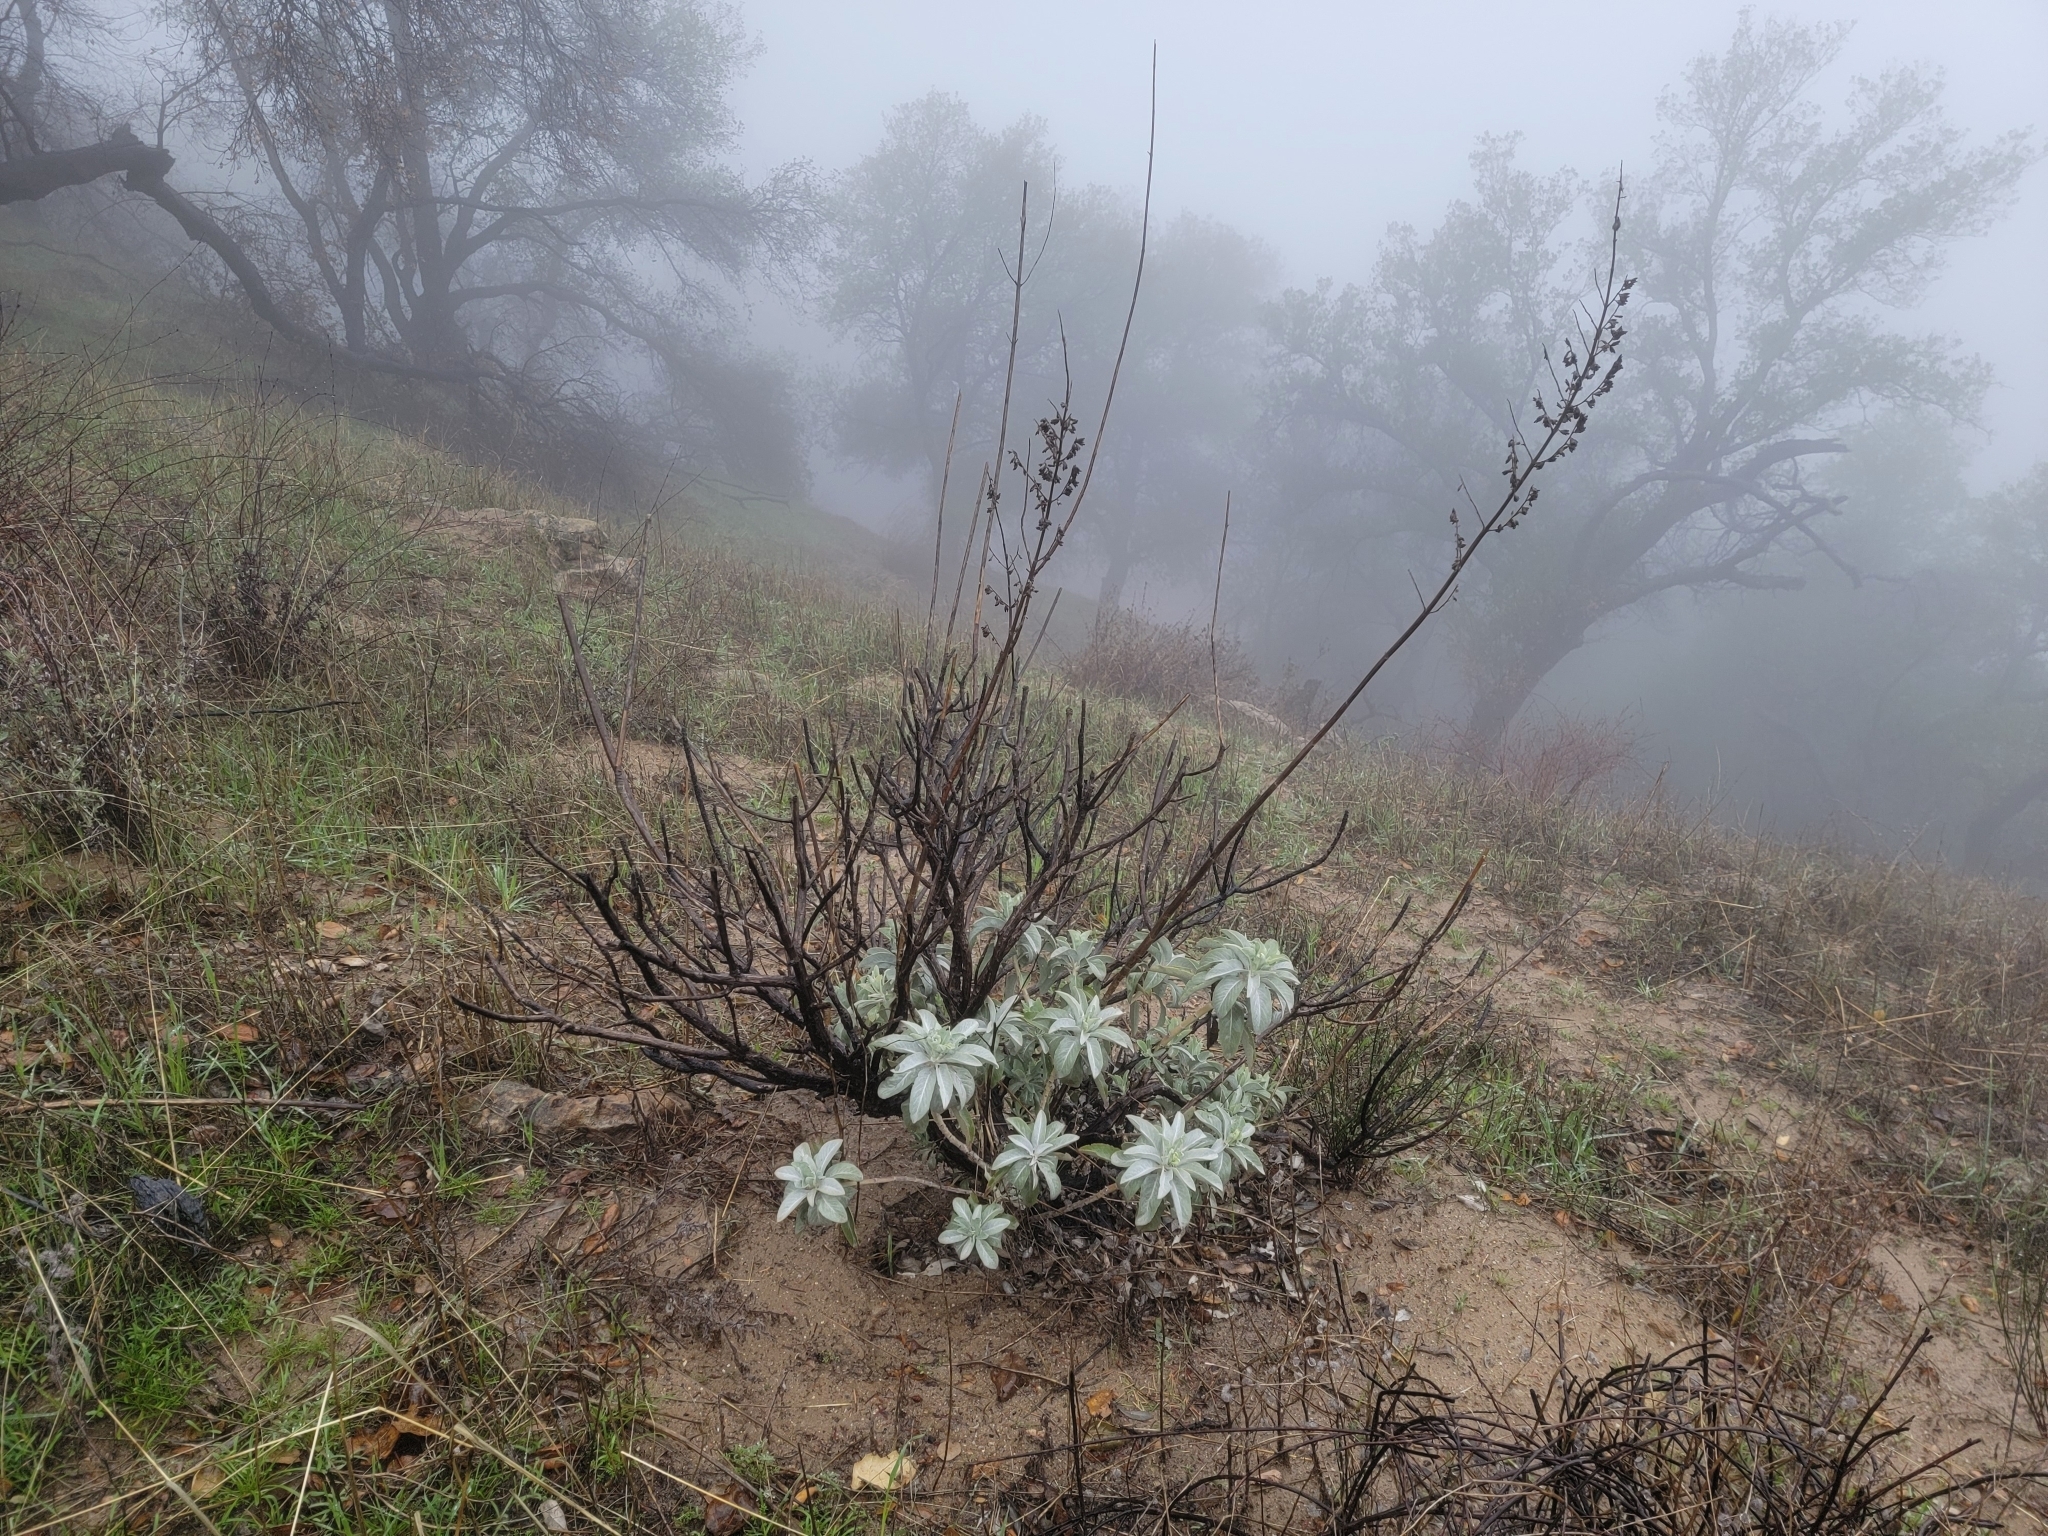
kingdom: Plantae
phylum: Tracheophyta
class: Magnoliopsida
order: Lamiales
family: Lamiaceae
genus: Salvia
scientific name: Salvia apiana
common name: White sage
